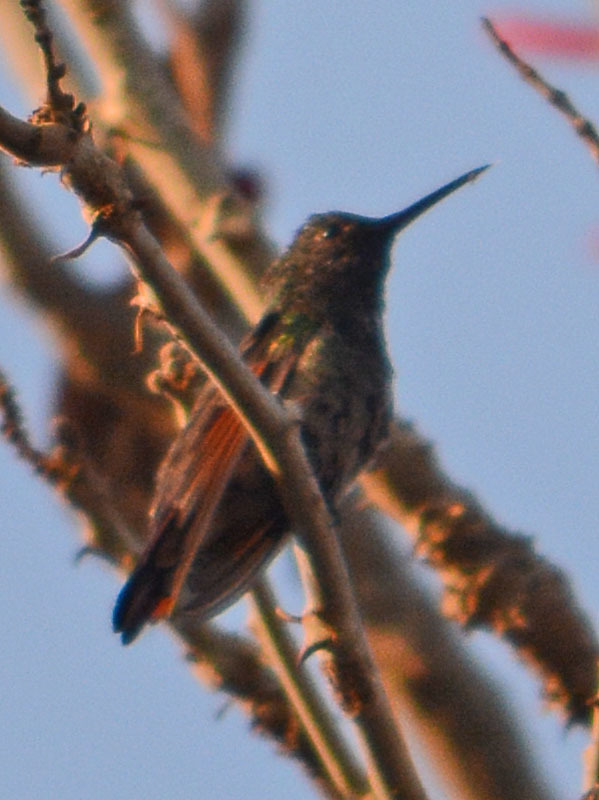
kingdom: Animalia
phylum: Chordata
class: Aves
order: Apodiformes
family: Trochilidae
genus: Saucerottia
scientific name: Saucerottia beryllina
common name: Berylline hummingbird
